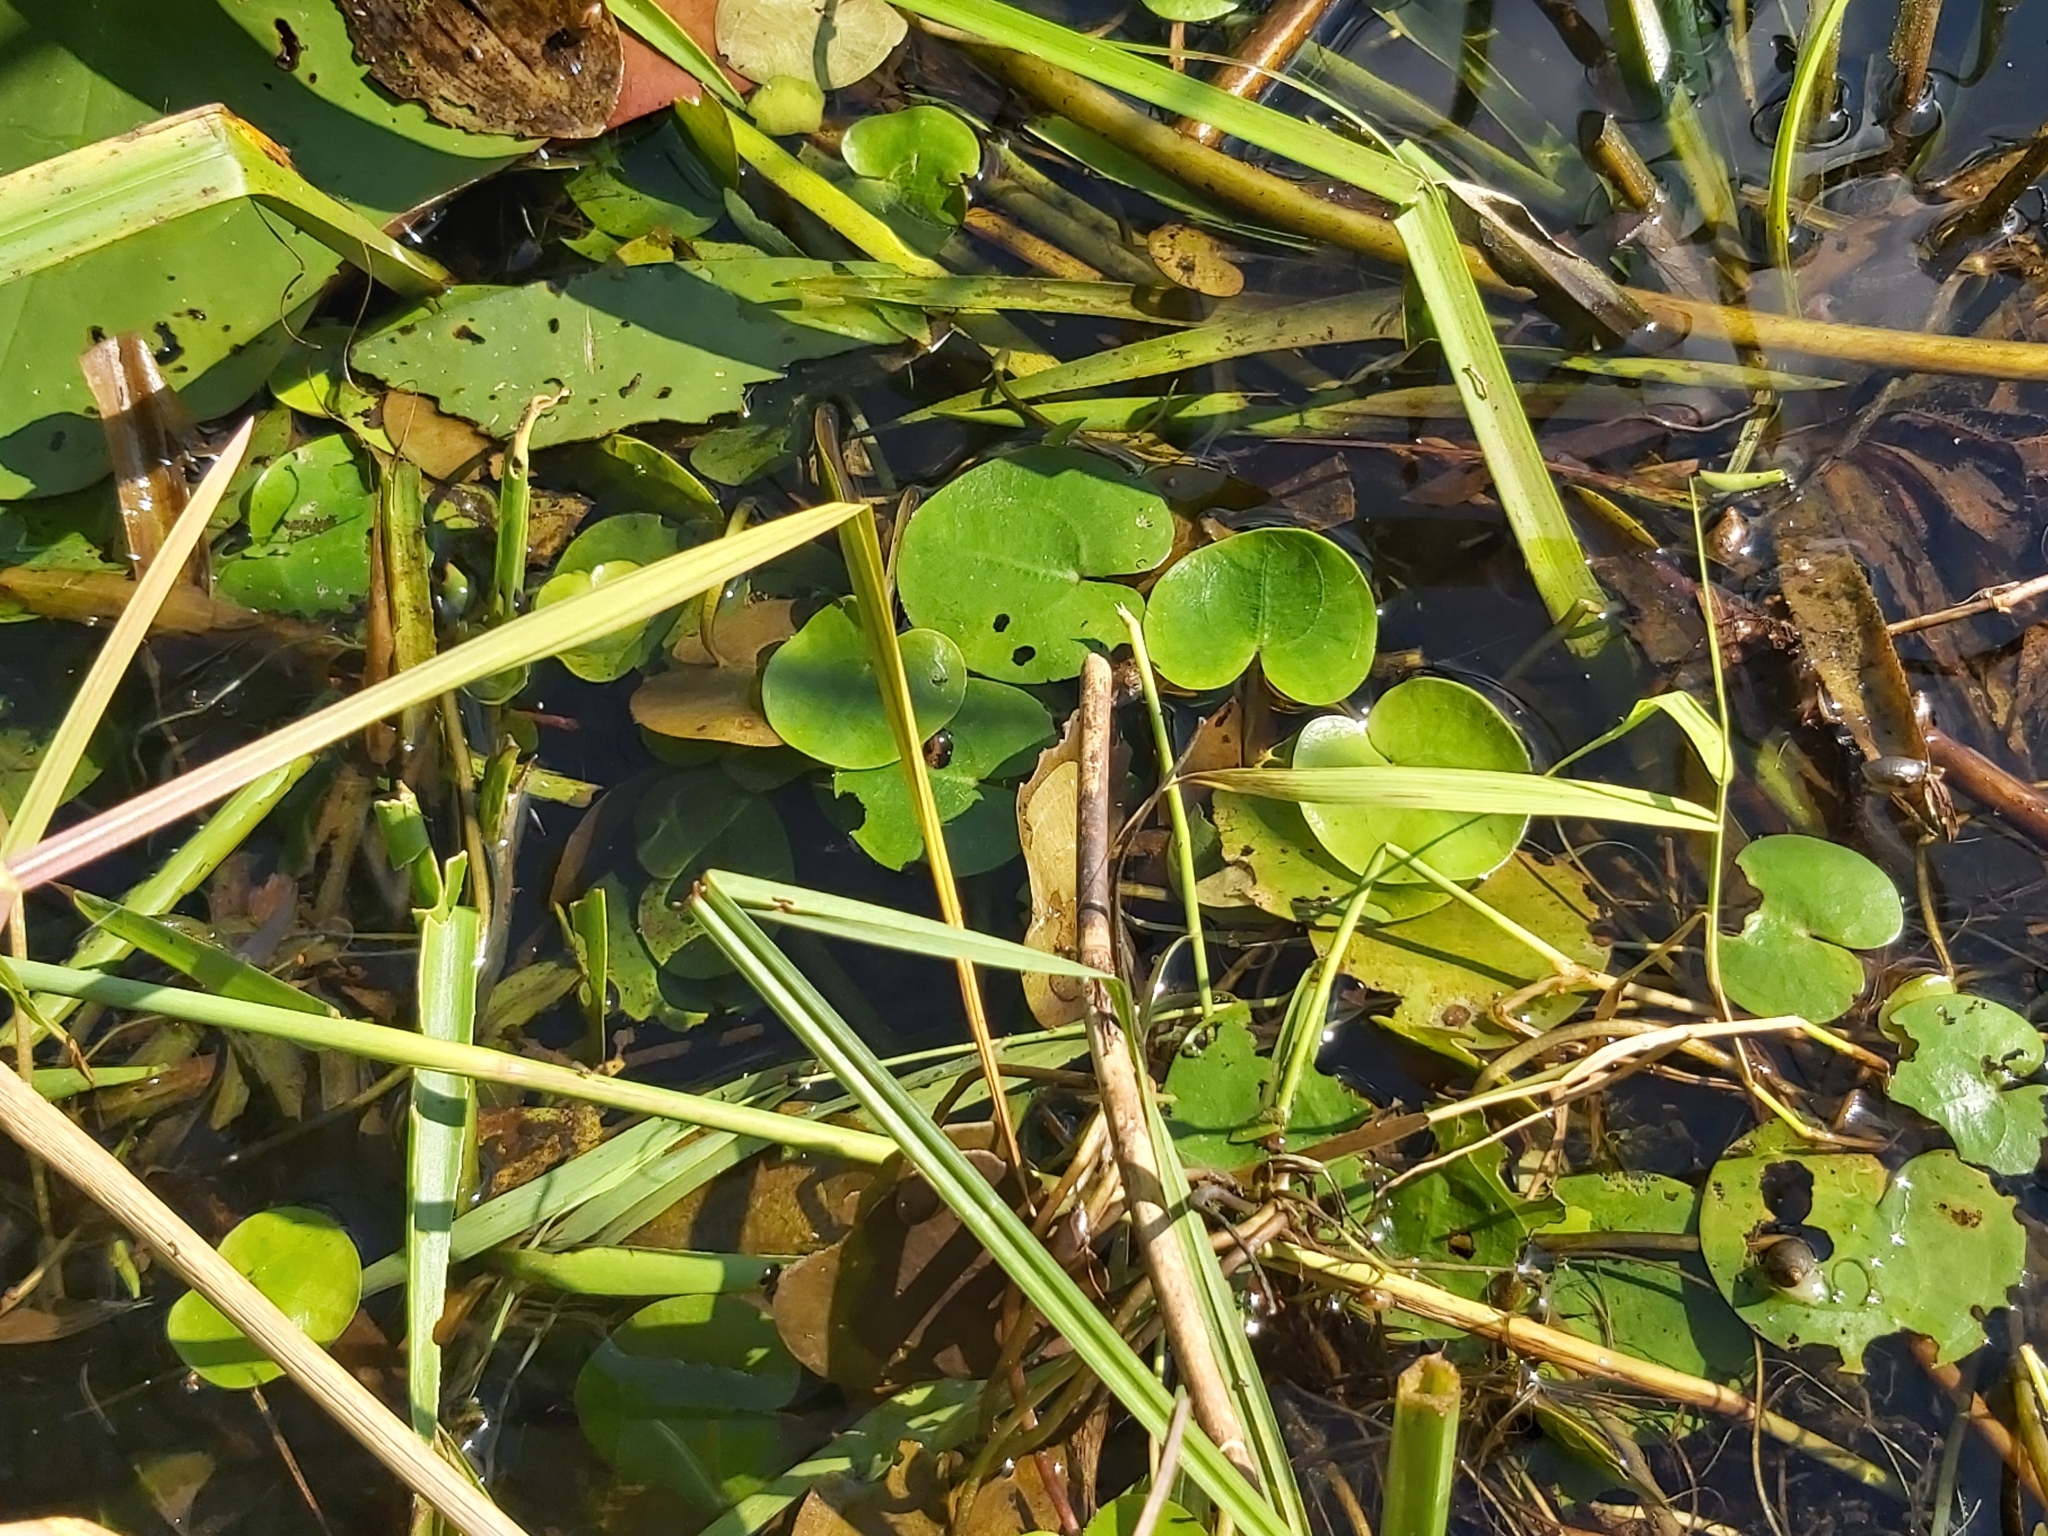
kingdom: Plantae
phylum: Tracheophyta
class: Liliopsida
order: Alismatales
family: Hydrocharitaceae
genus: Hydrocharis
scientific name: Hydrocharis morsus-ranae
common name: Frogbit
